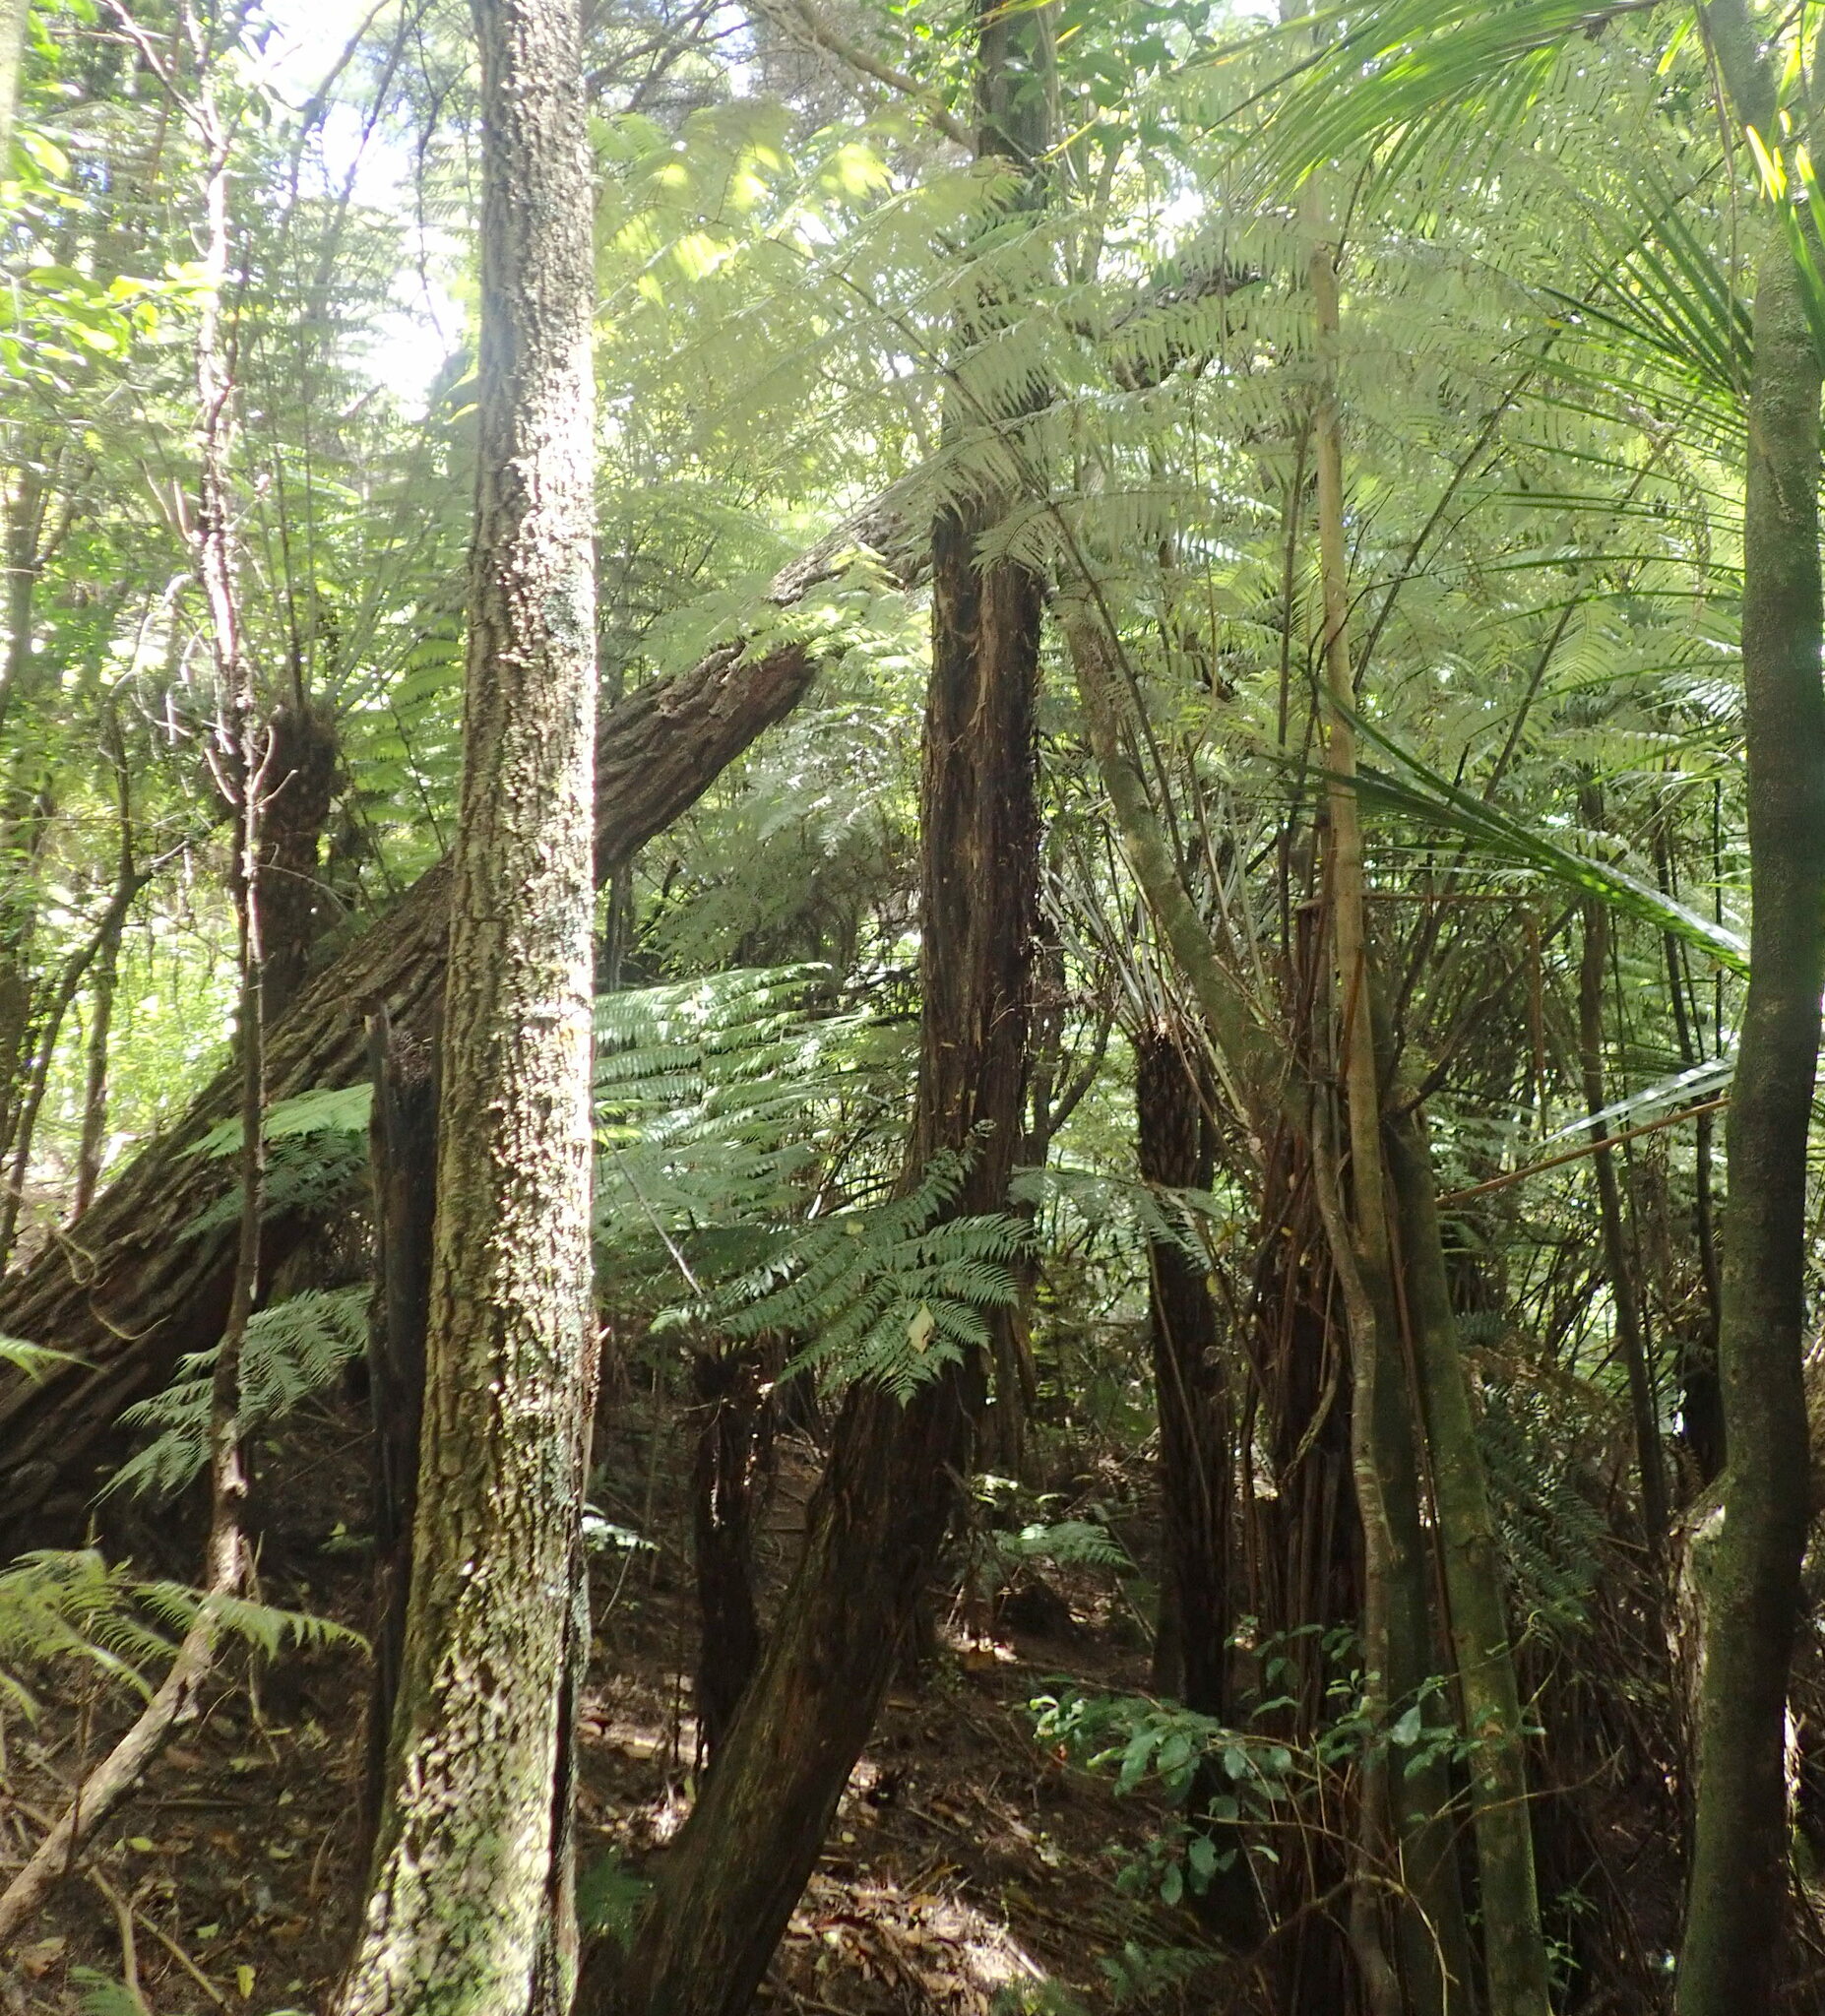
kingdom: Plantae
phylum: Tracheophyta
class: Pinopsida
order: Pinales
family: Pinaceae
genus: Pinus
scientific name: Pinus radiata
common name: Monterey pine
